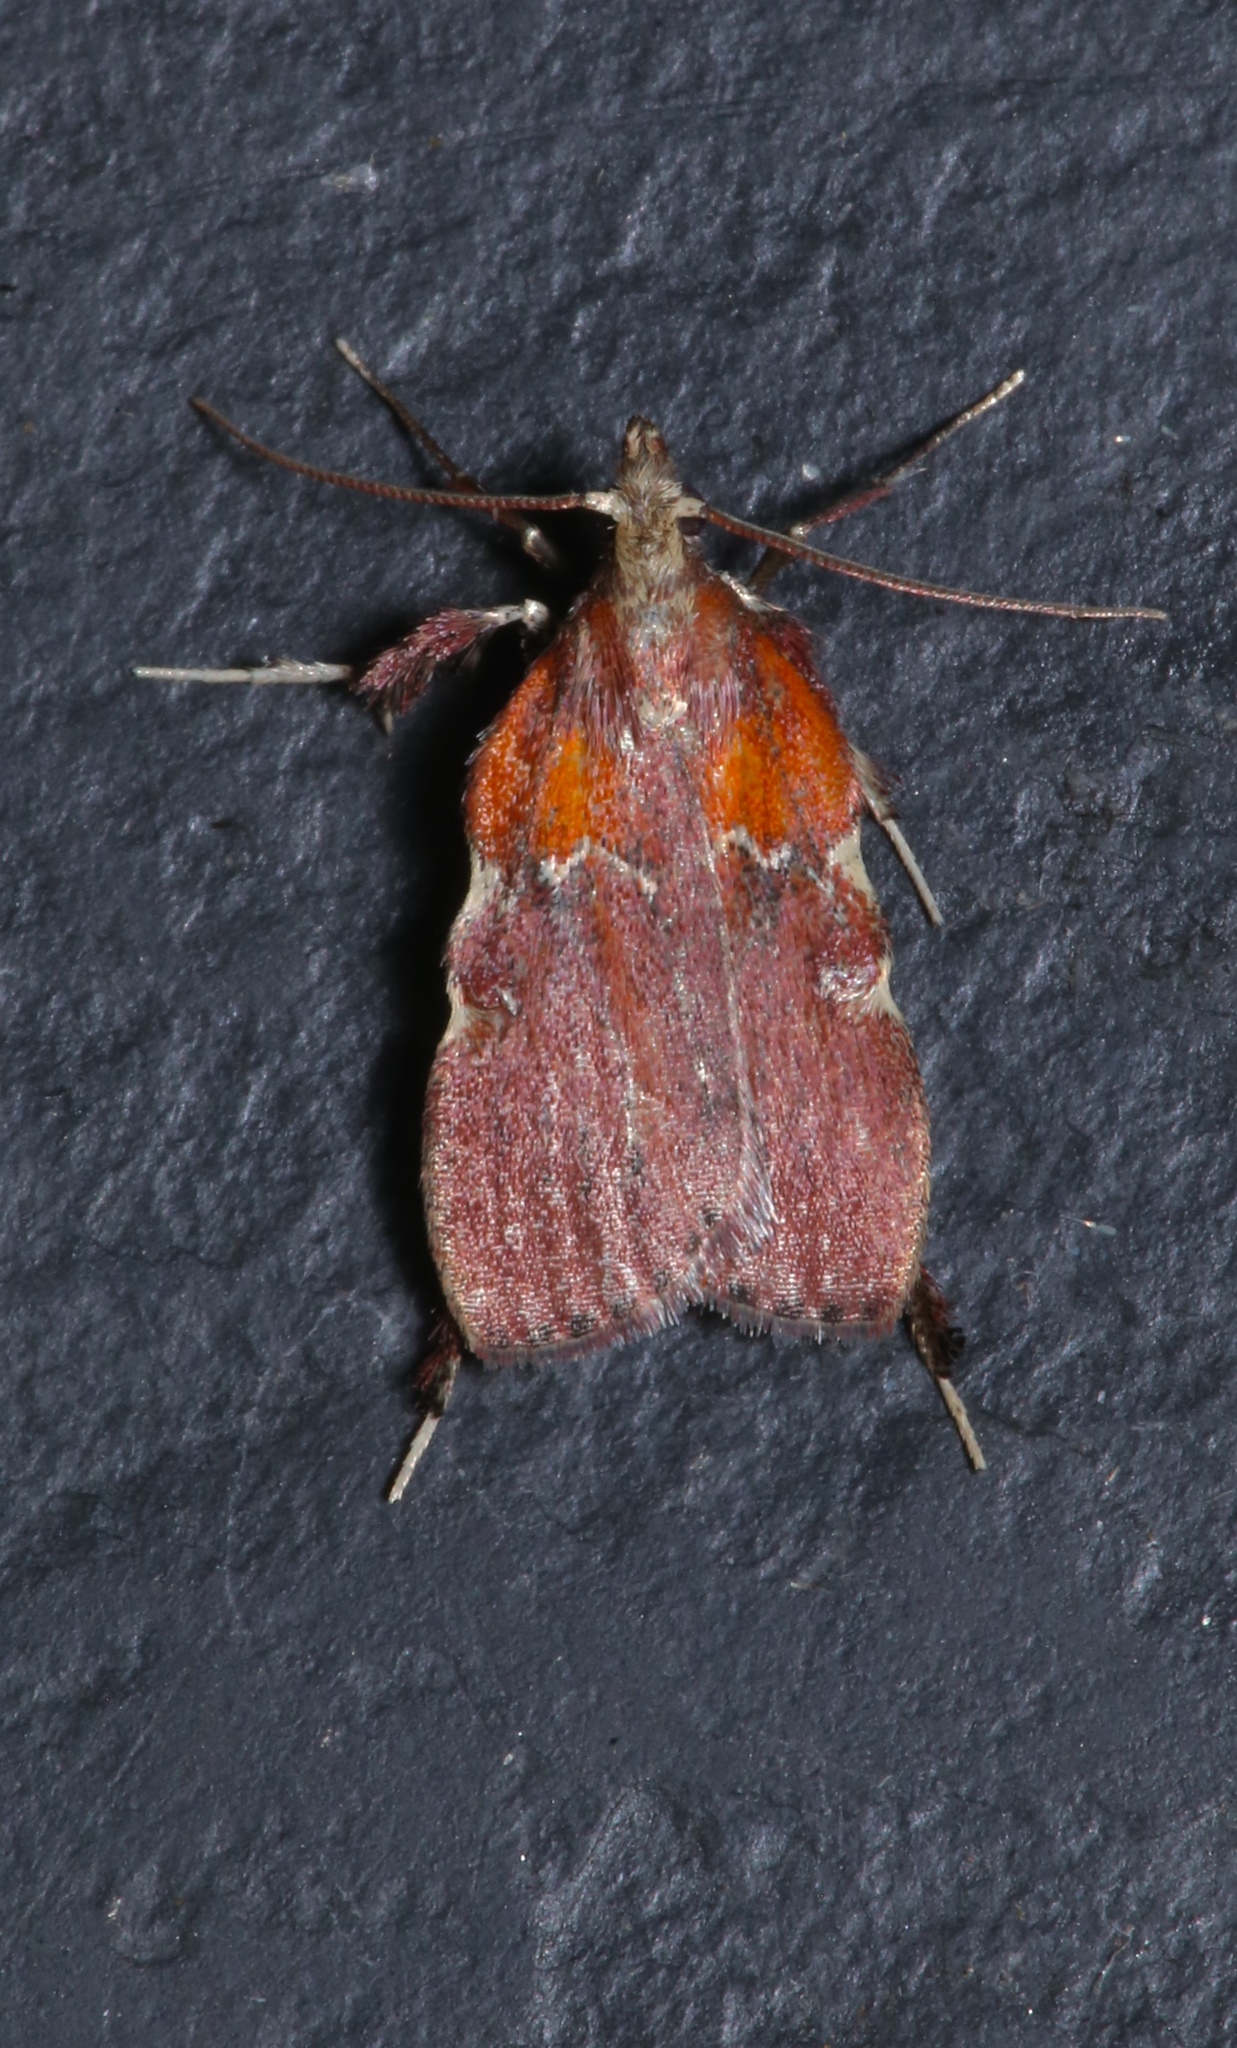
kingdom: Animalia
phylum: Arthropoda
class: Insecta
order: Lepidoptera
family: Pyralidae
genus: Galasa
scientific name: Galasa nigrinodis
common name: Boxwood leaftier moth
